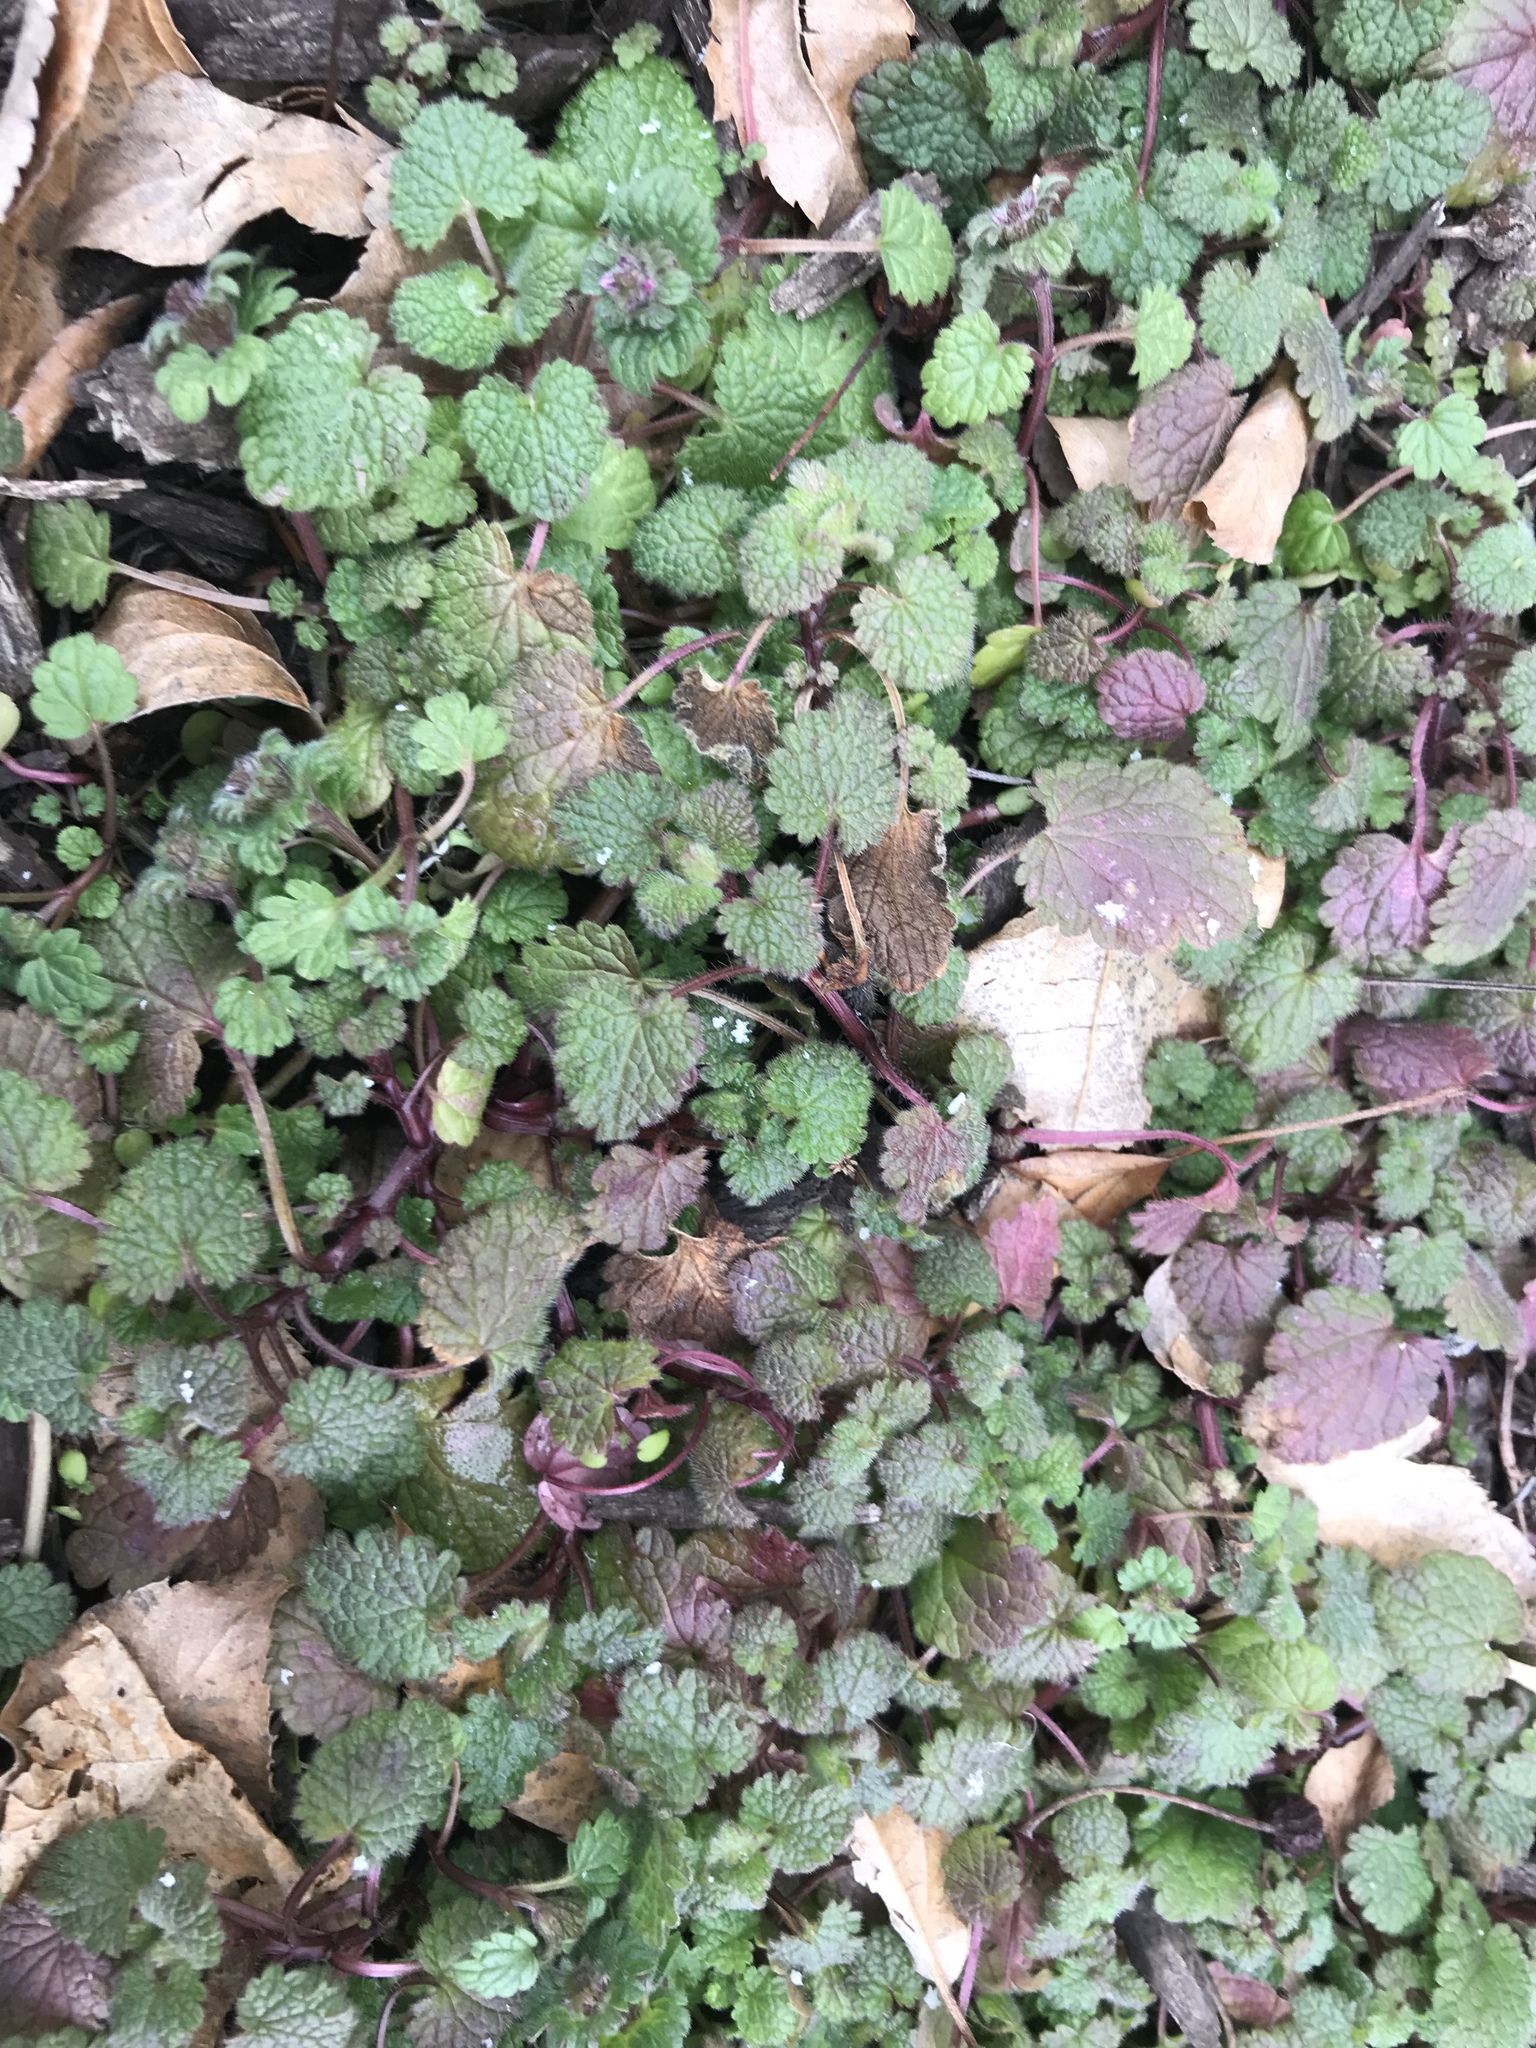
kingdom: Plantae
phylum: Tracheophyta
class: Magnoliopsida
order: Lamiales
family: Lamiaceae
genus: Lamium
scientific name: Lamium amplexicaule
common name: Henbit dead-nettle
